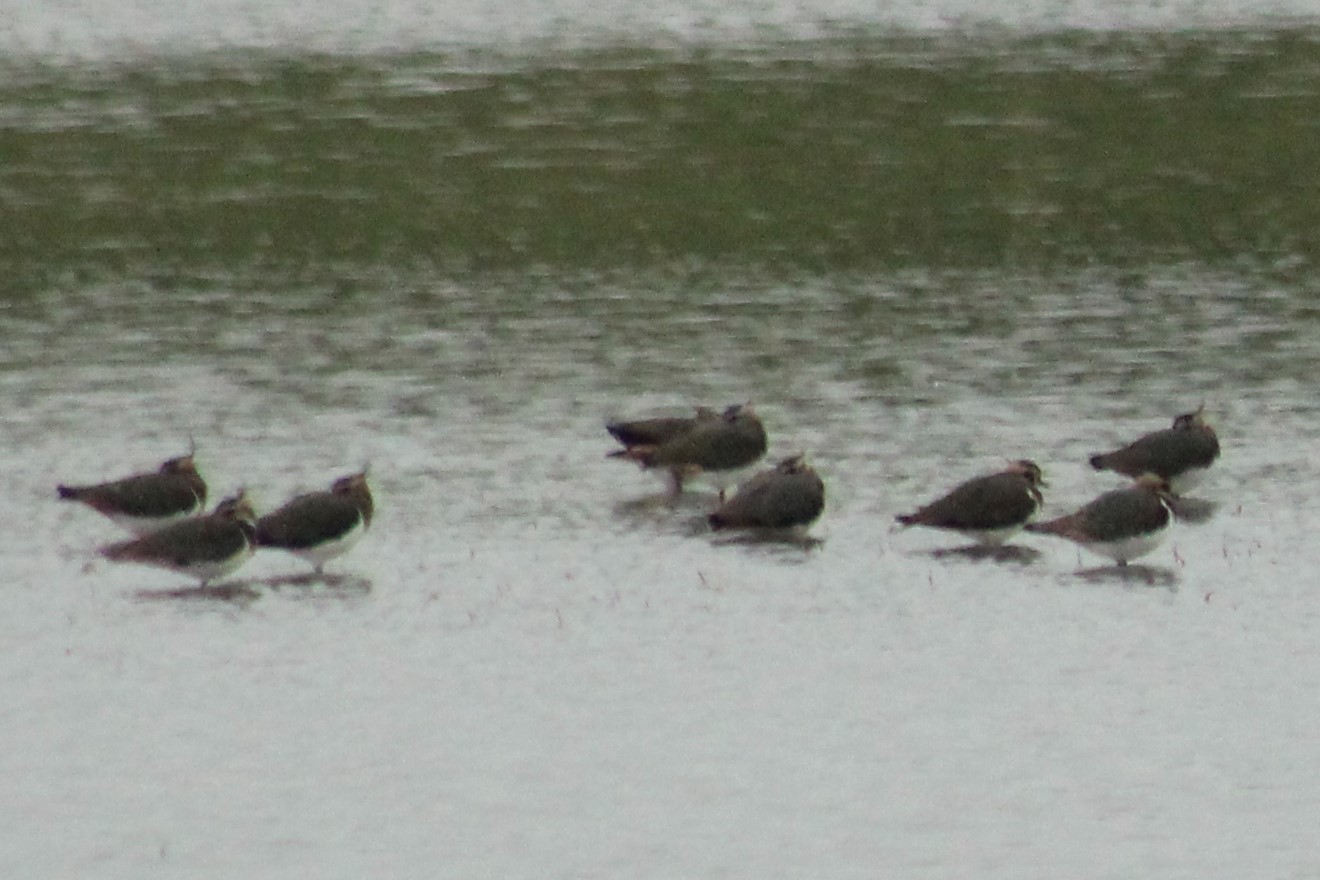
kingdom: Animalia
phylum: Chordata
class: Aves
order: Charadriiformes
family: Charadriidae
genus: Vanellus
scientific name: Vanellus vanellus
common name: Northern lapwing
